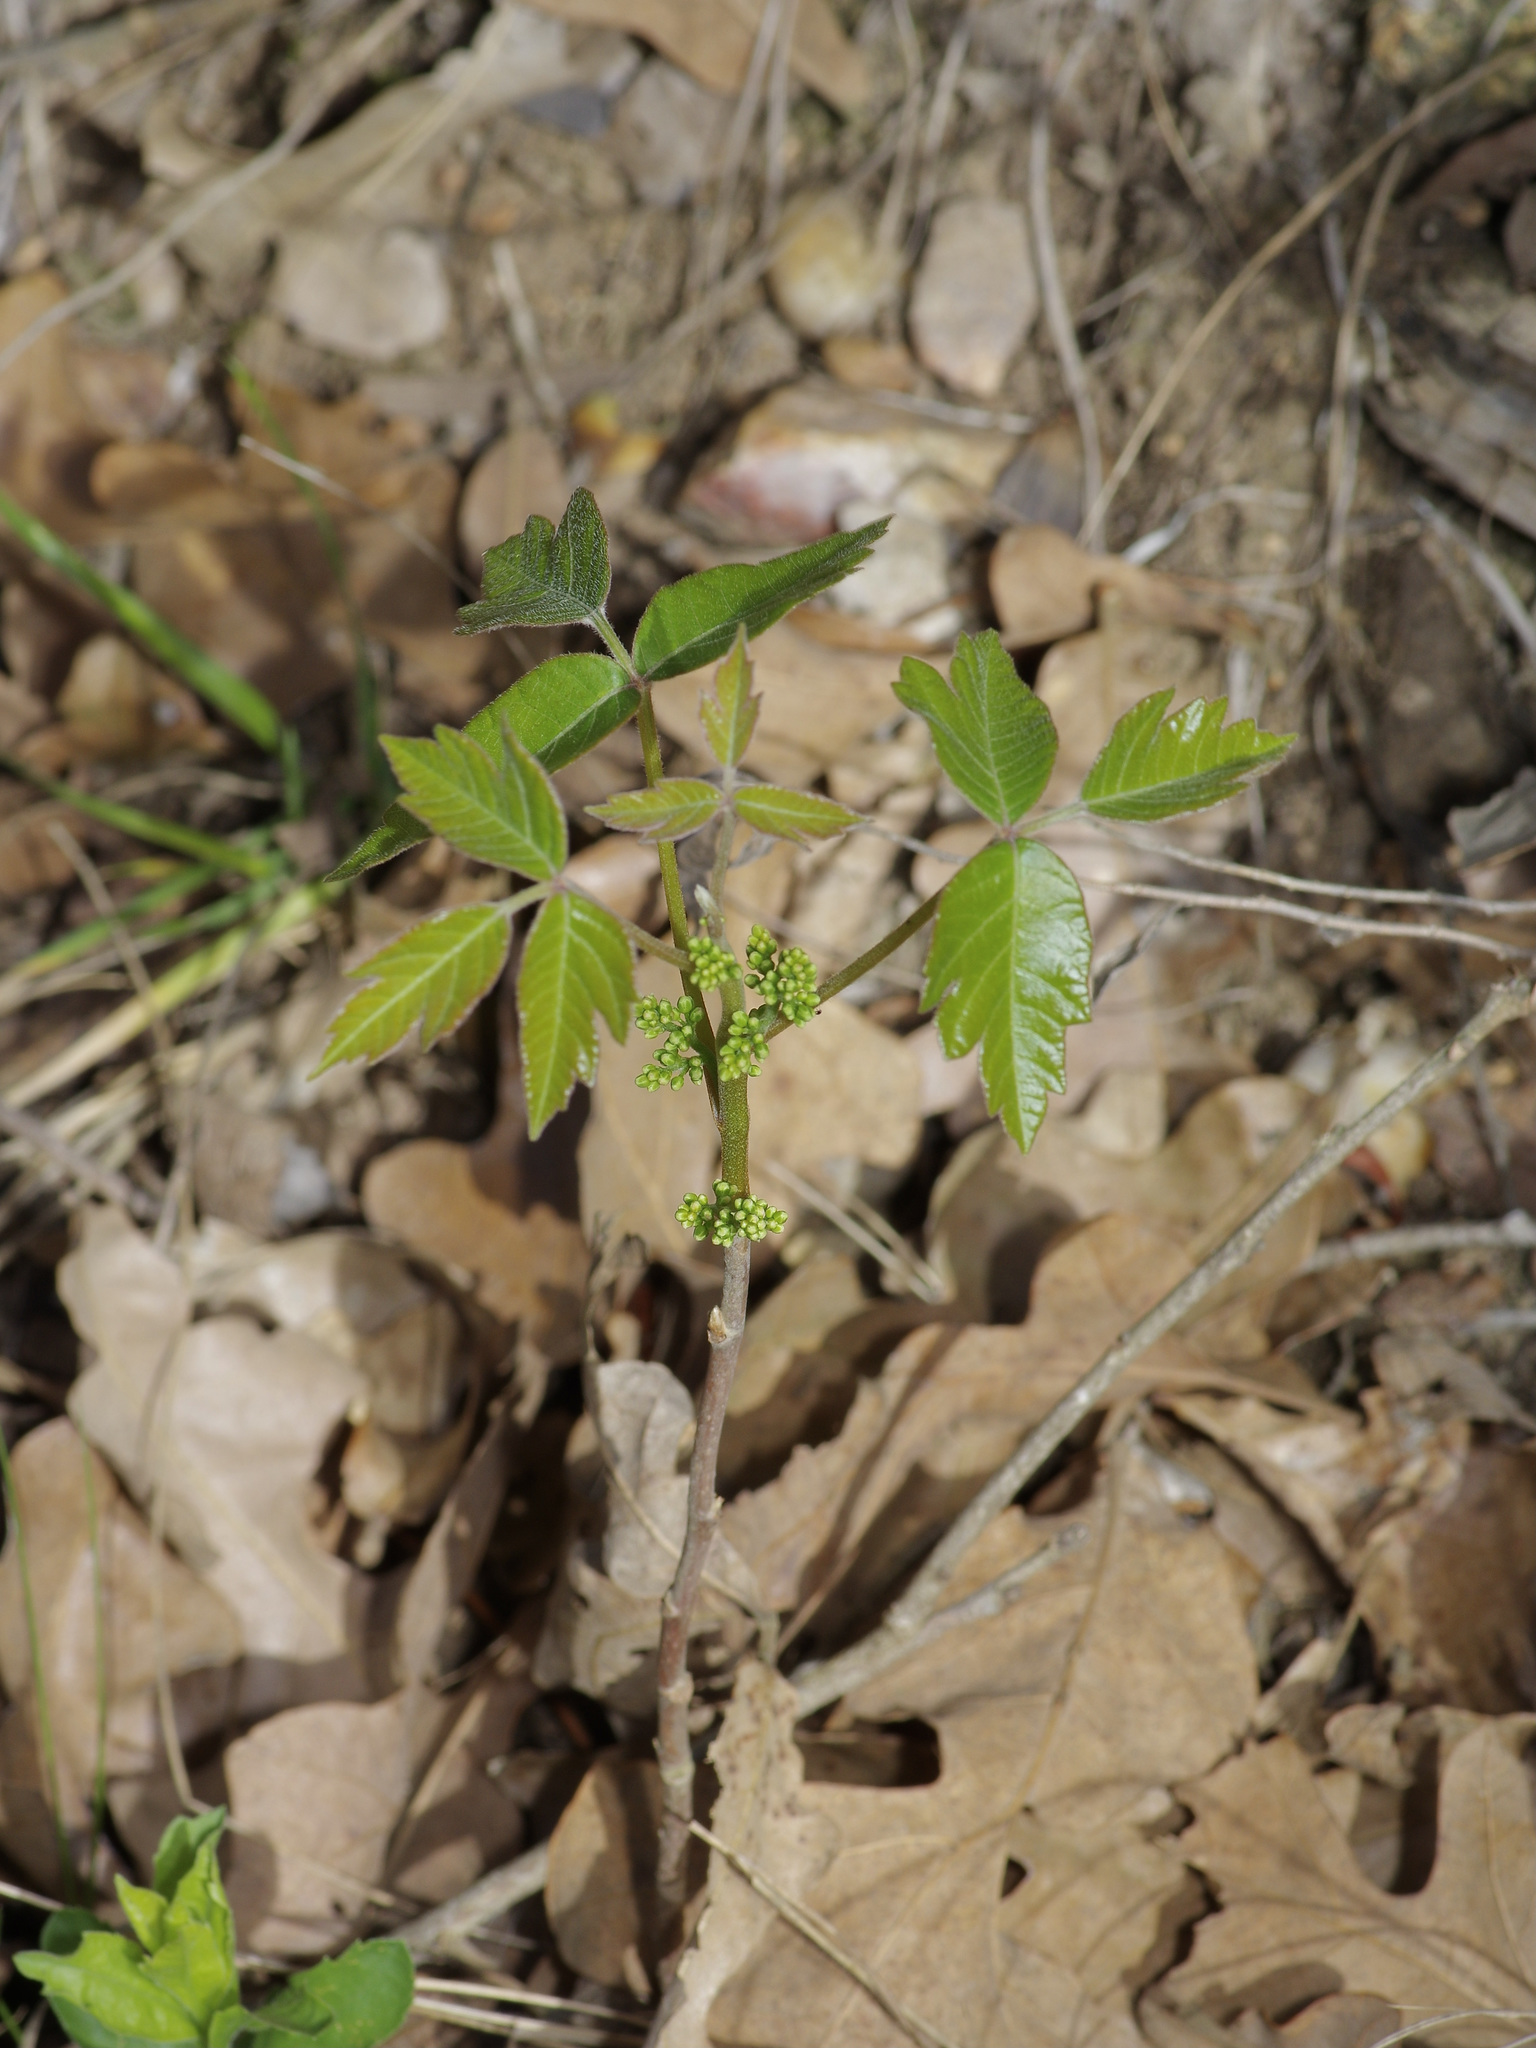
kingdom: Plantae
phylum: Tracheophyta
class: Magnoliopsida
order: Sapindales
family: Anacardiaceae
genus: Toxicodendron
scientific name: Toxicodendron radicans
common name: Poison ivy
